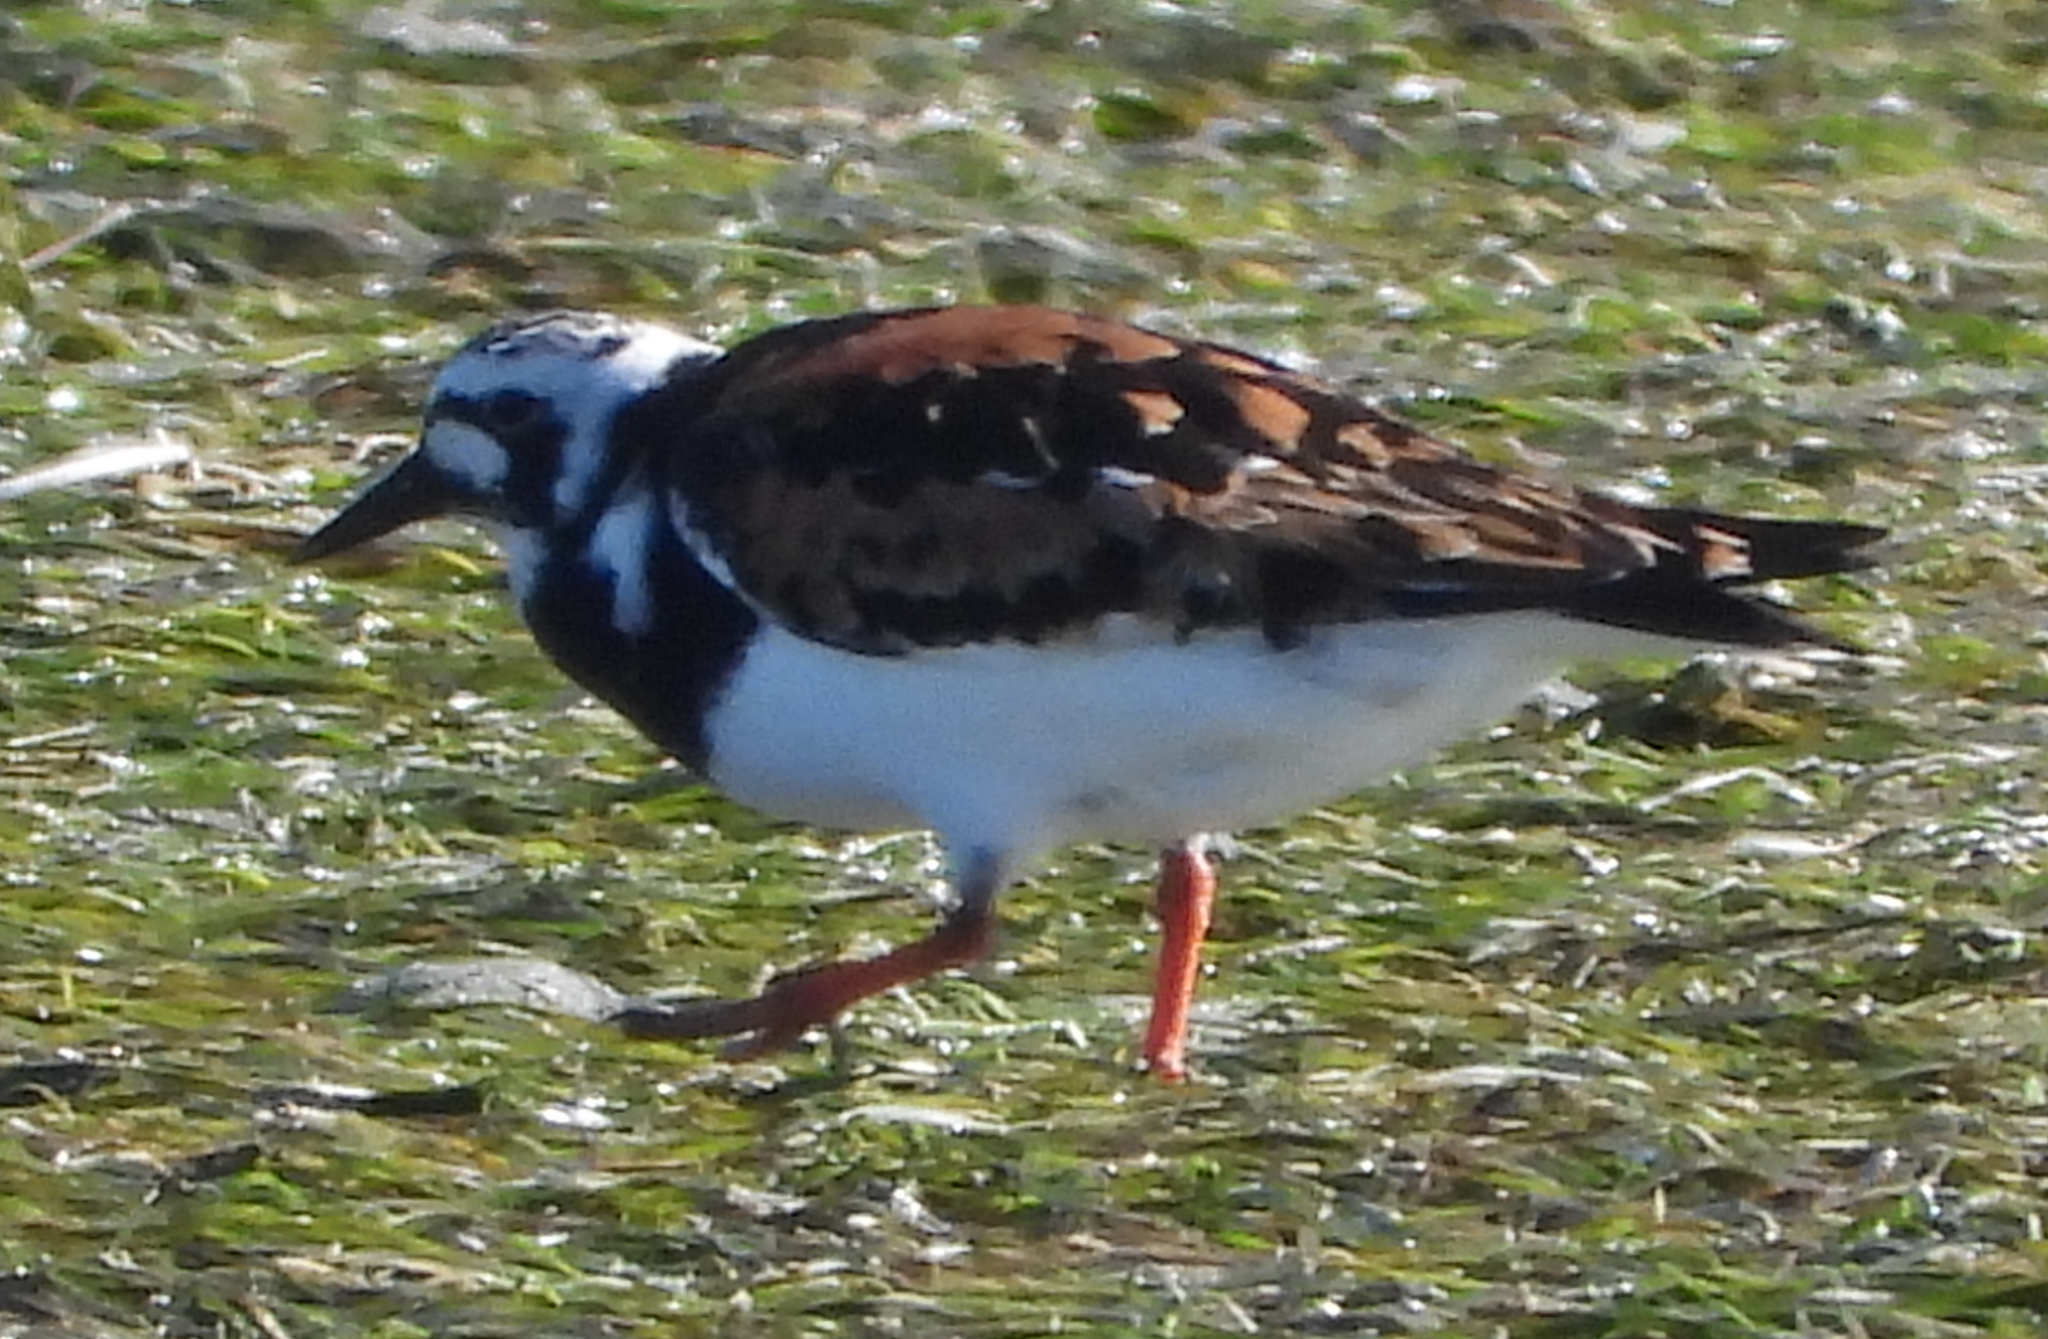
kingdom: Animalia
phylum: Chordata
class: Aves
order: Charadriiformes
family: Scolopacidae
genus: Arenaria
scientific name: Arenaria interpres
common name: Ruddy turnstone
